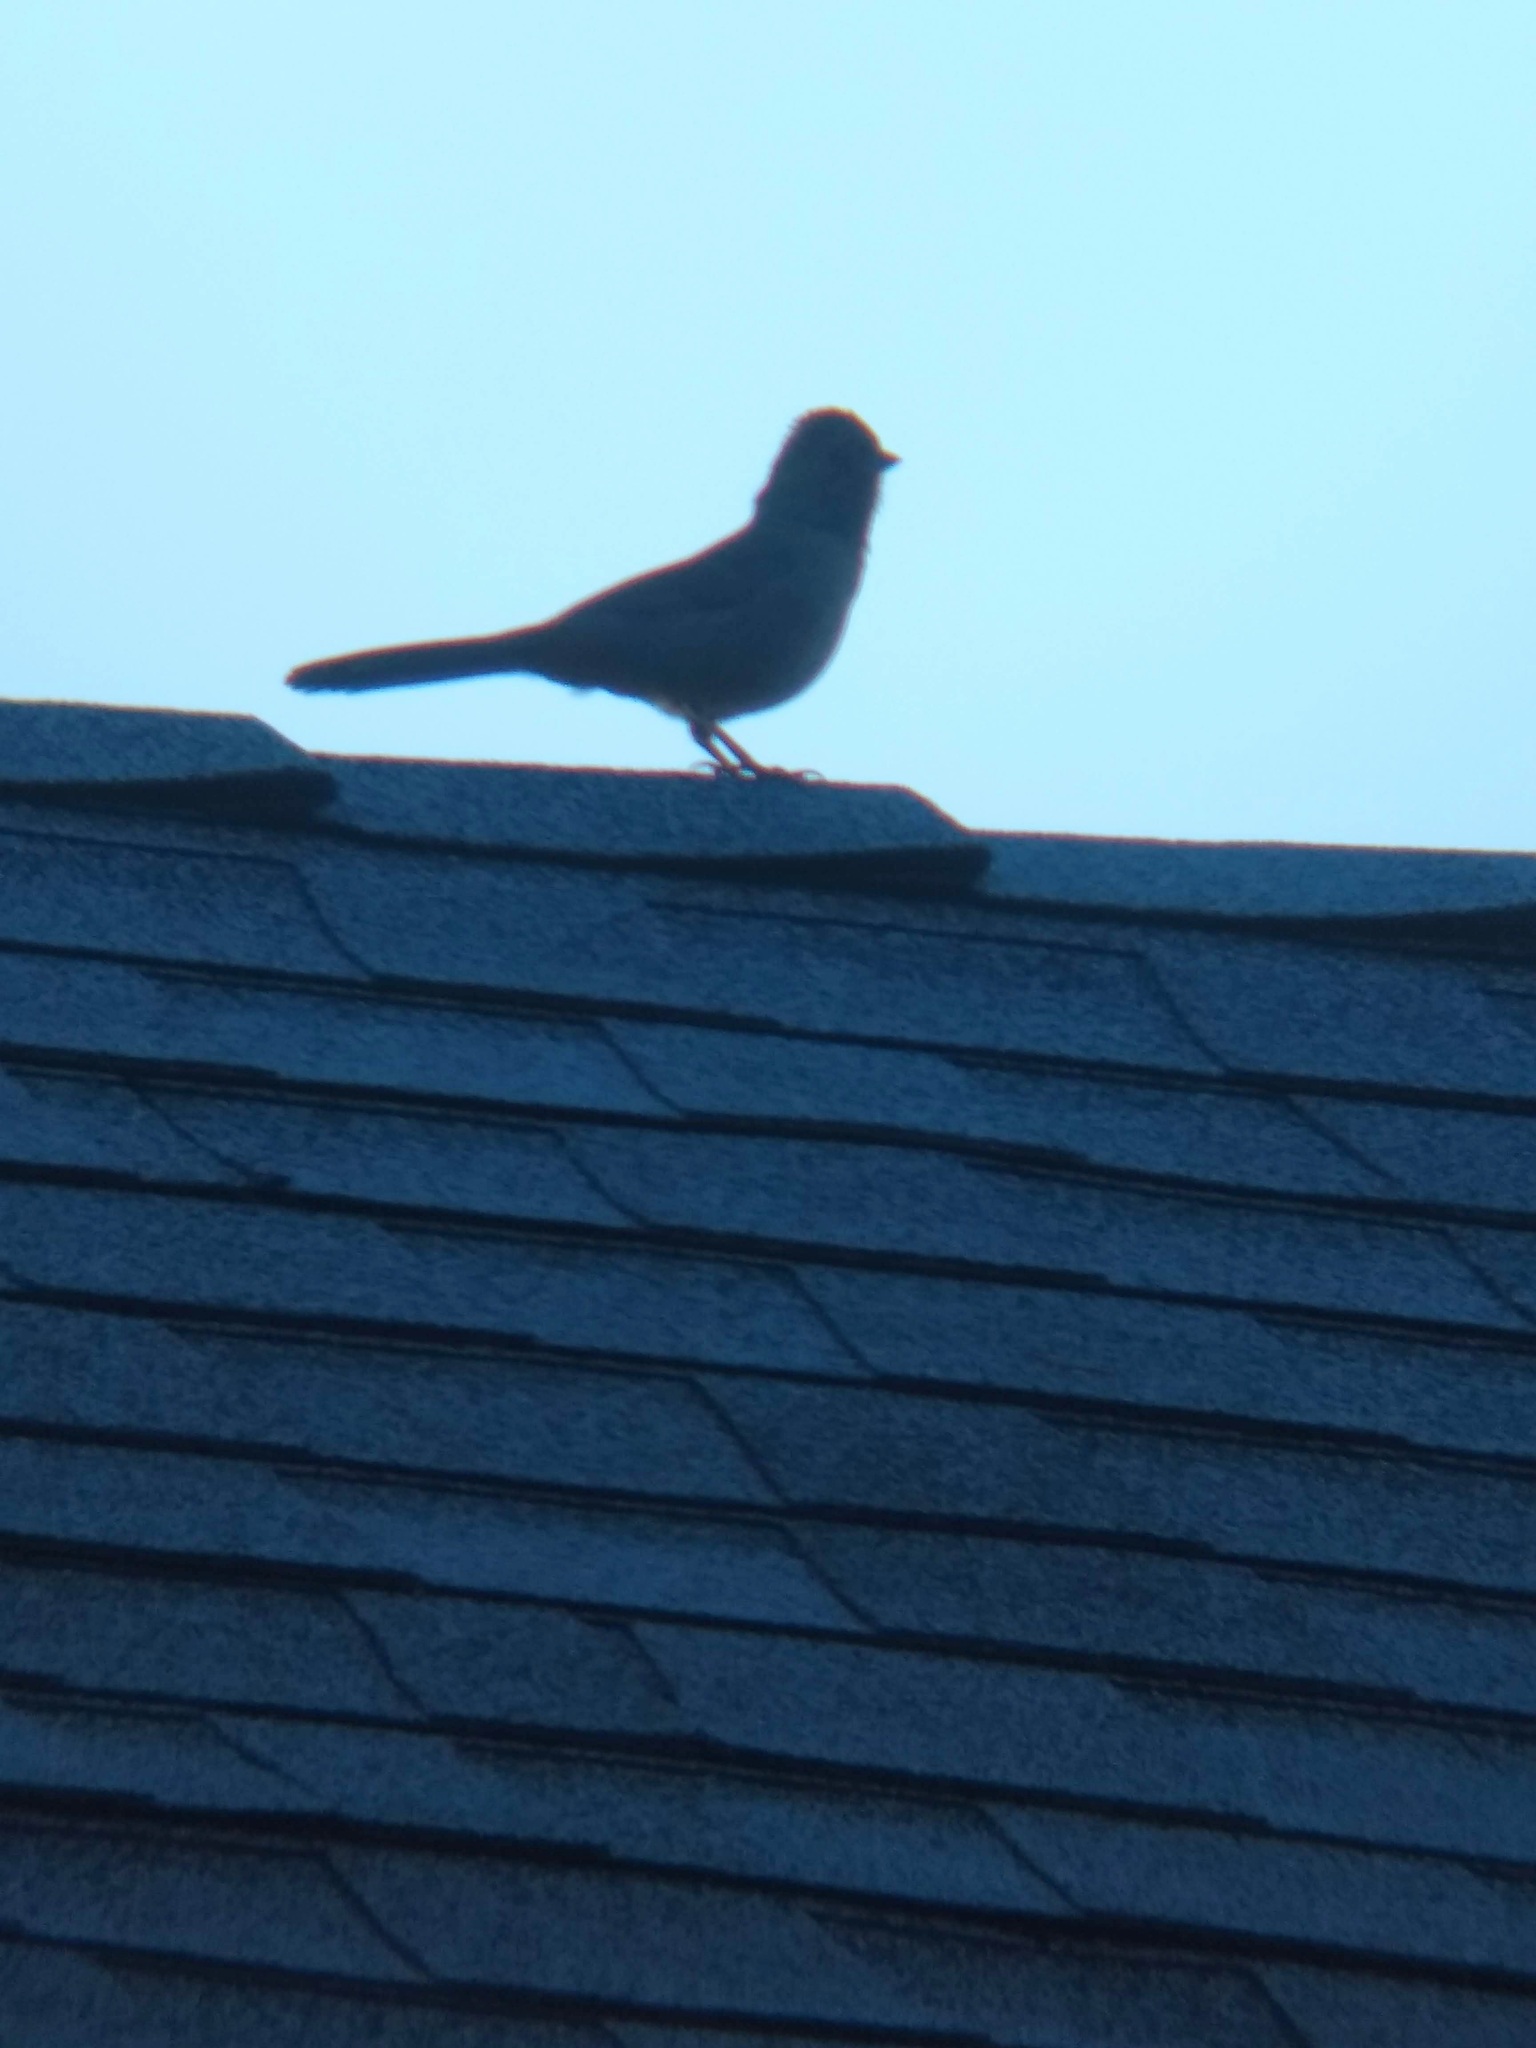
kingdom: Animalia
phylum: Chordata
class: Aves
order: Passeriformes
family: Passerellidae
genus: Melozone
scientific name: Melozone crissalis
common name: California towhee
